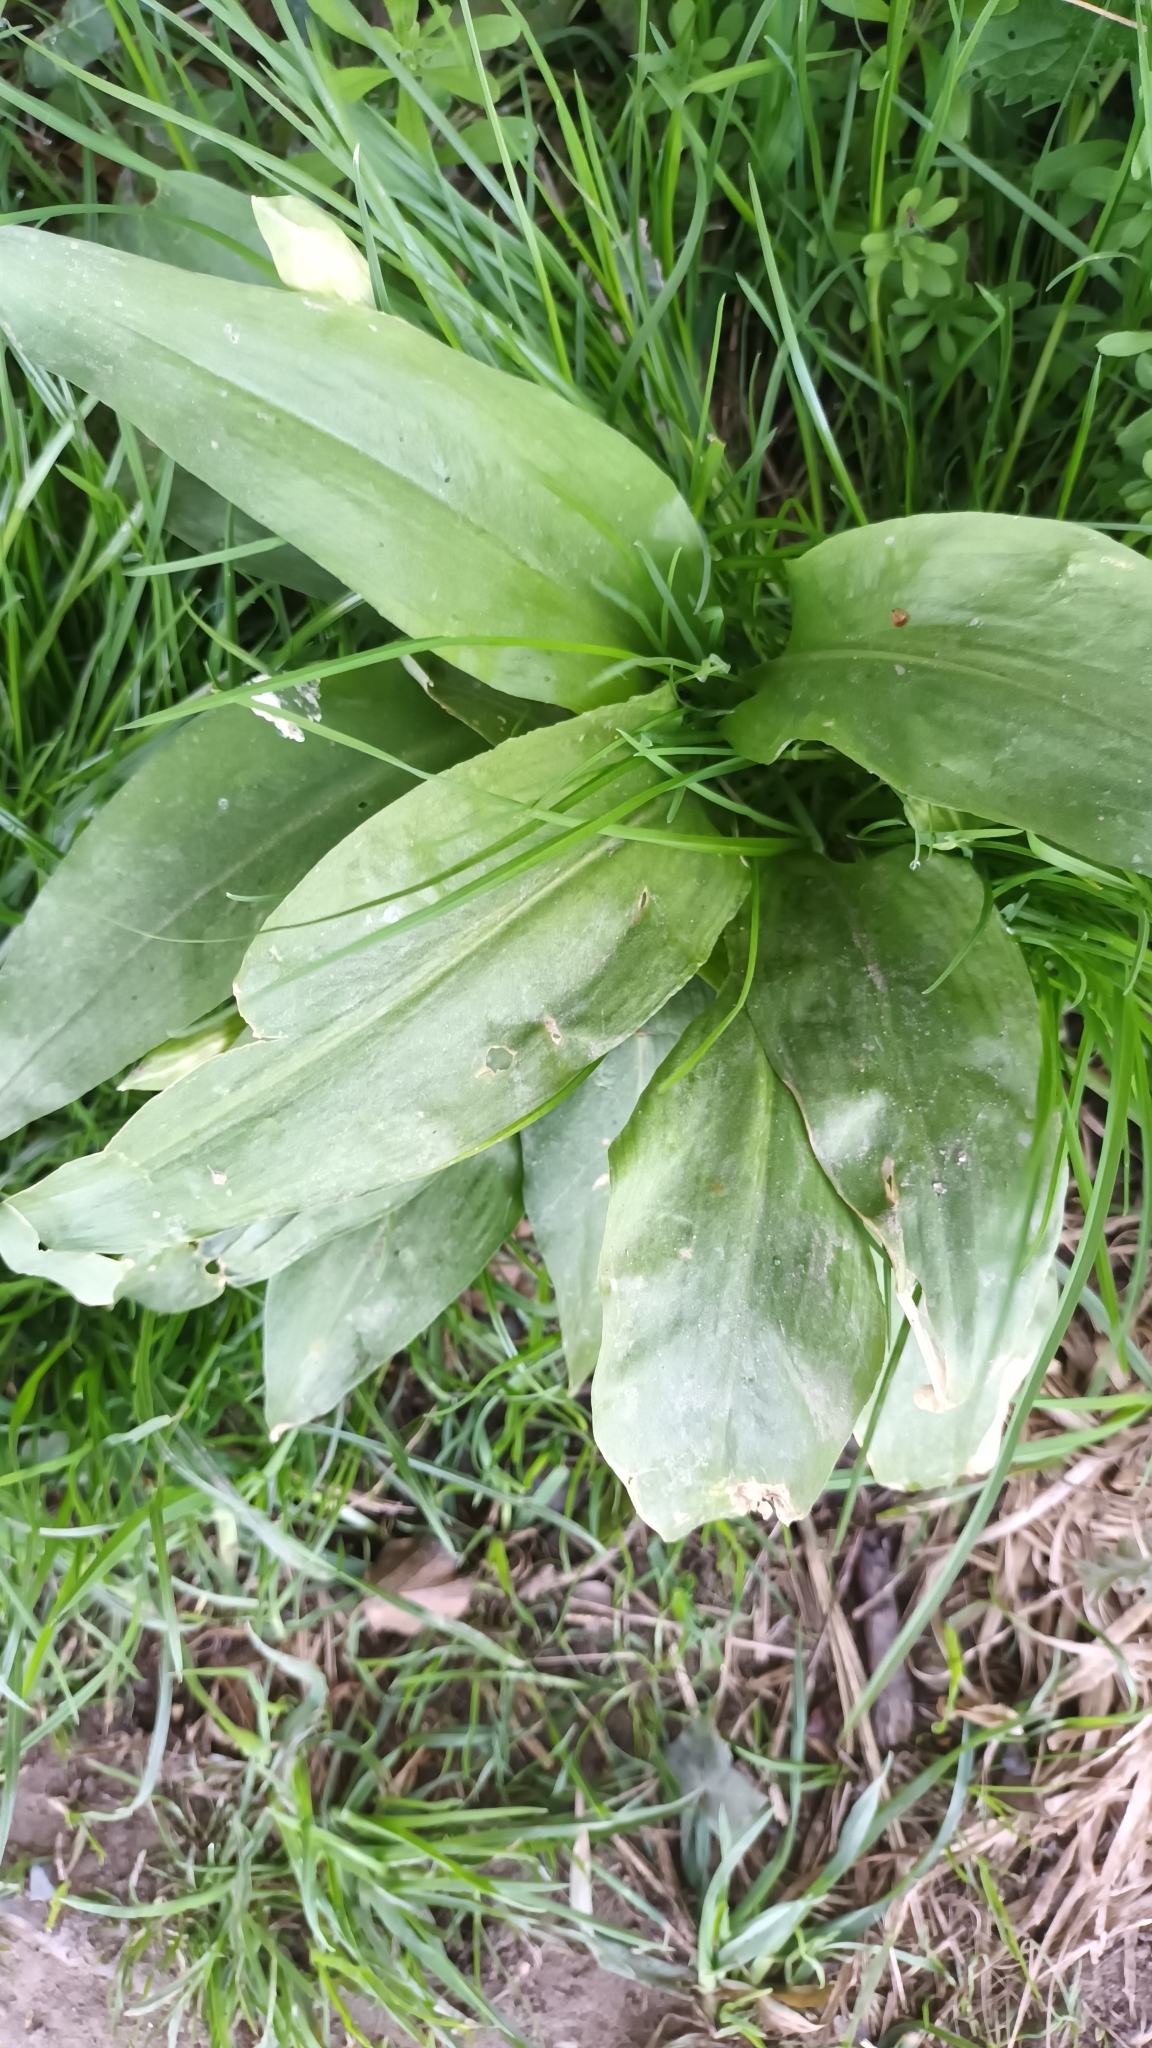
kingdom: Plantae
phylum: Tracheophyta
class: Liliopsida
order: Asparagales
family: Amaryllidaceae
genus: Allium
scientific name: Allium ursinum
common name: Ramsons
